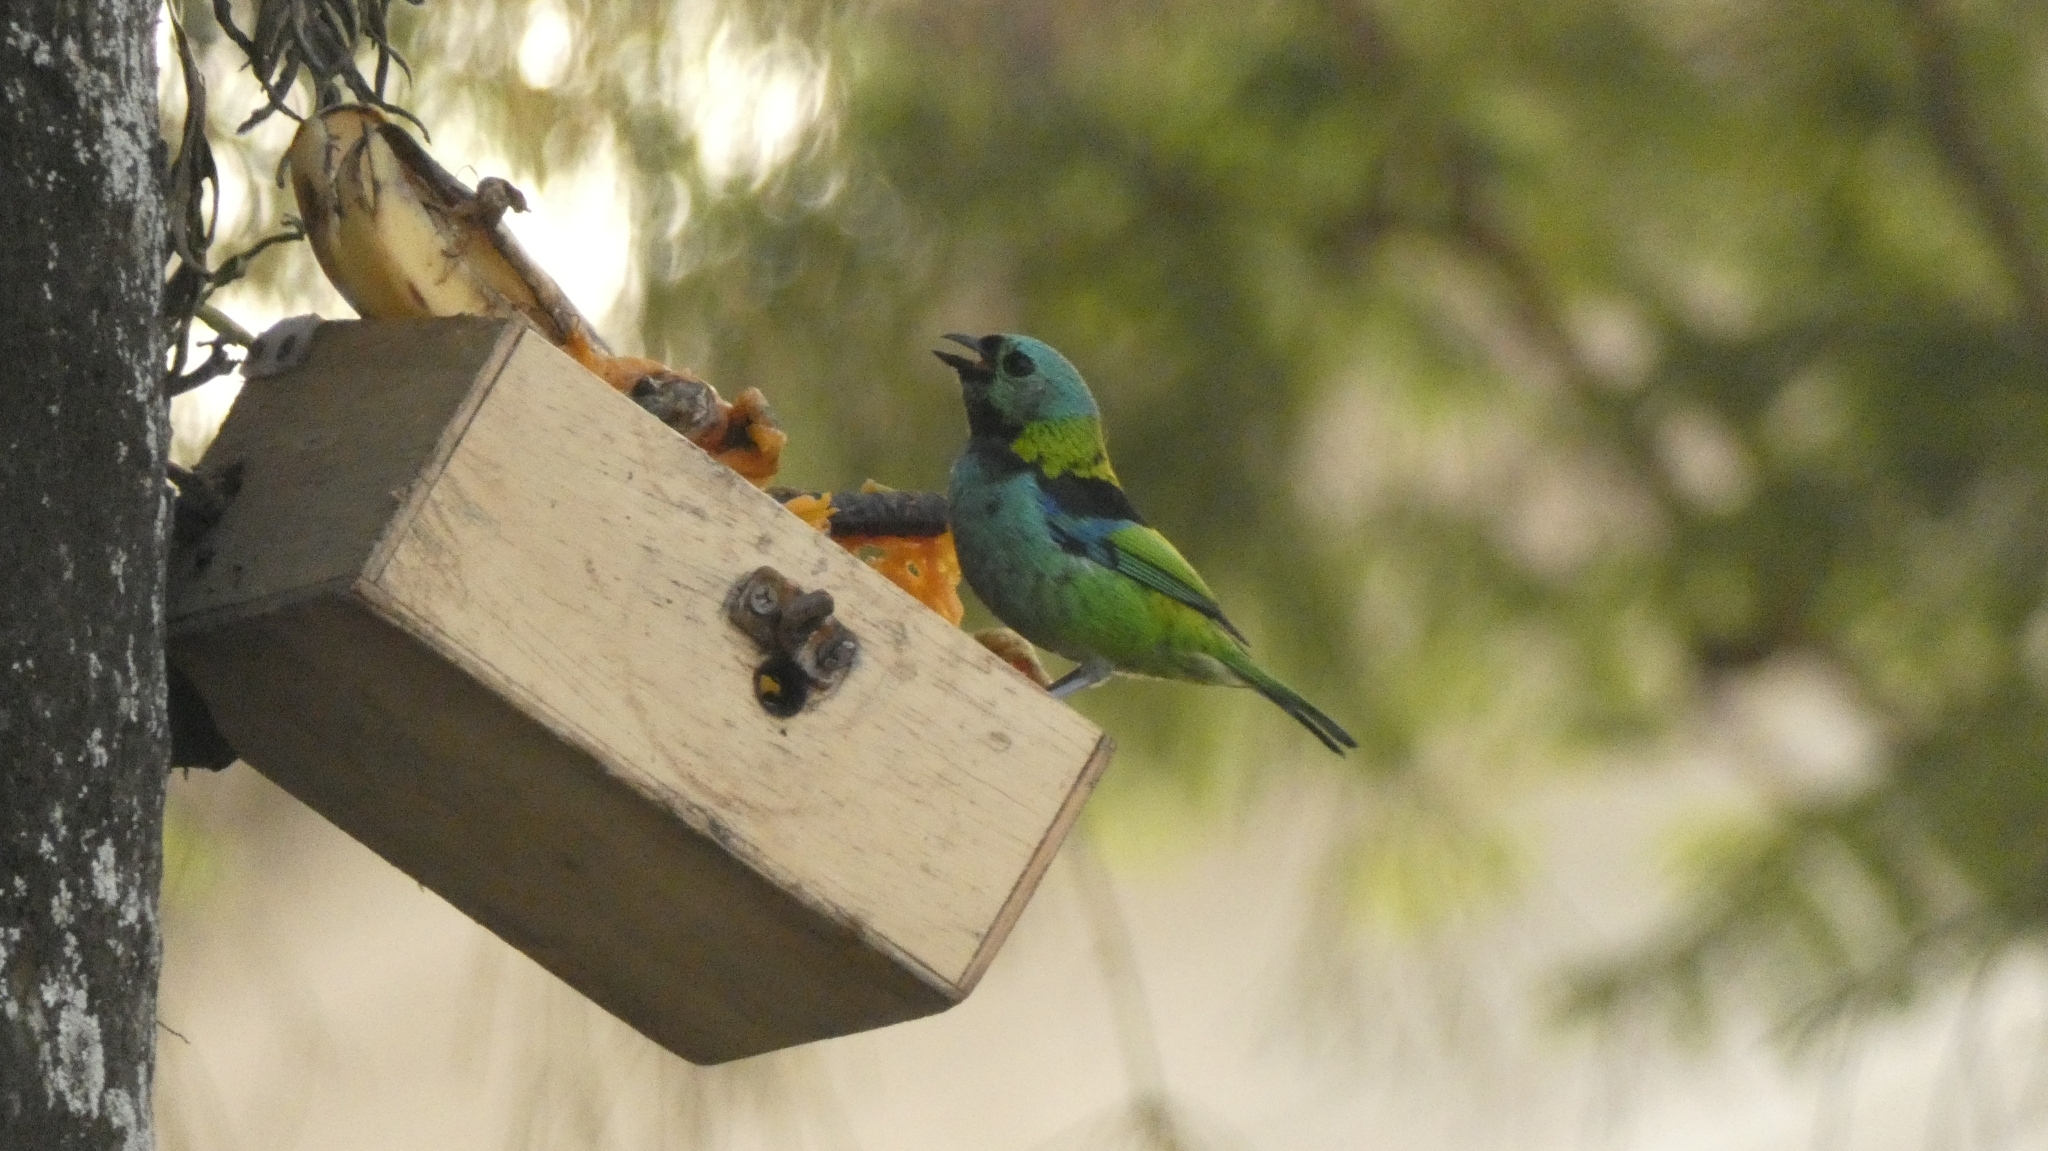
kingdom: Animalia
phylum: Chordata
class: Aves
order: Passeriformes
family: Thraupidae
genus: Tangara
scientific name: Tangara seledon
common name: Green-headed tanager
